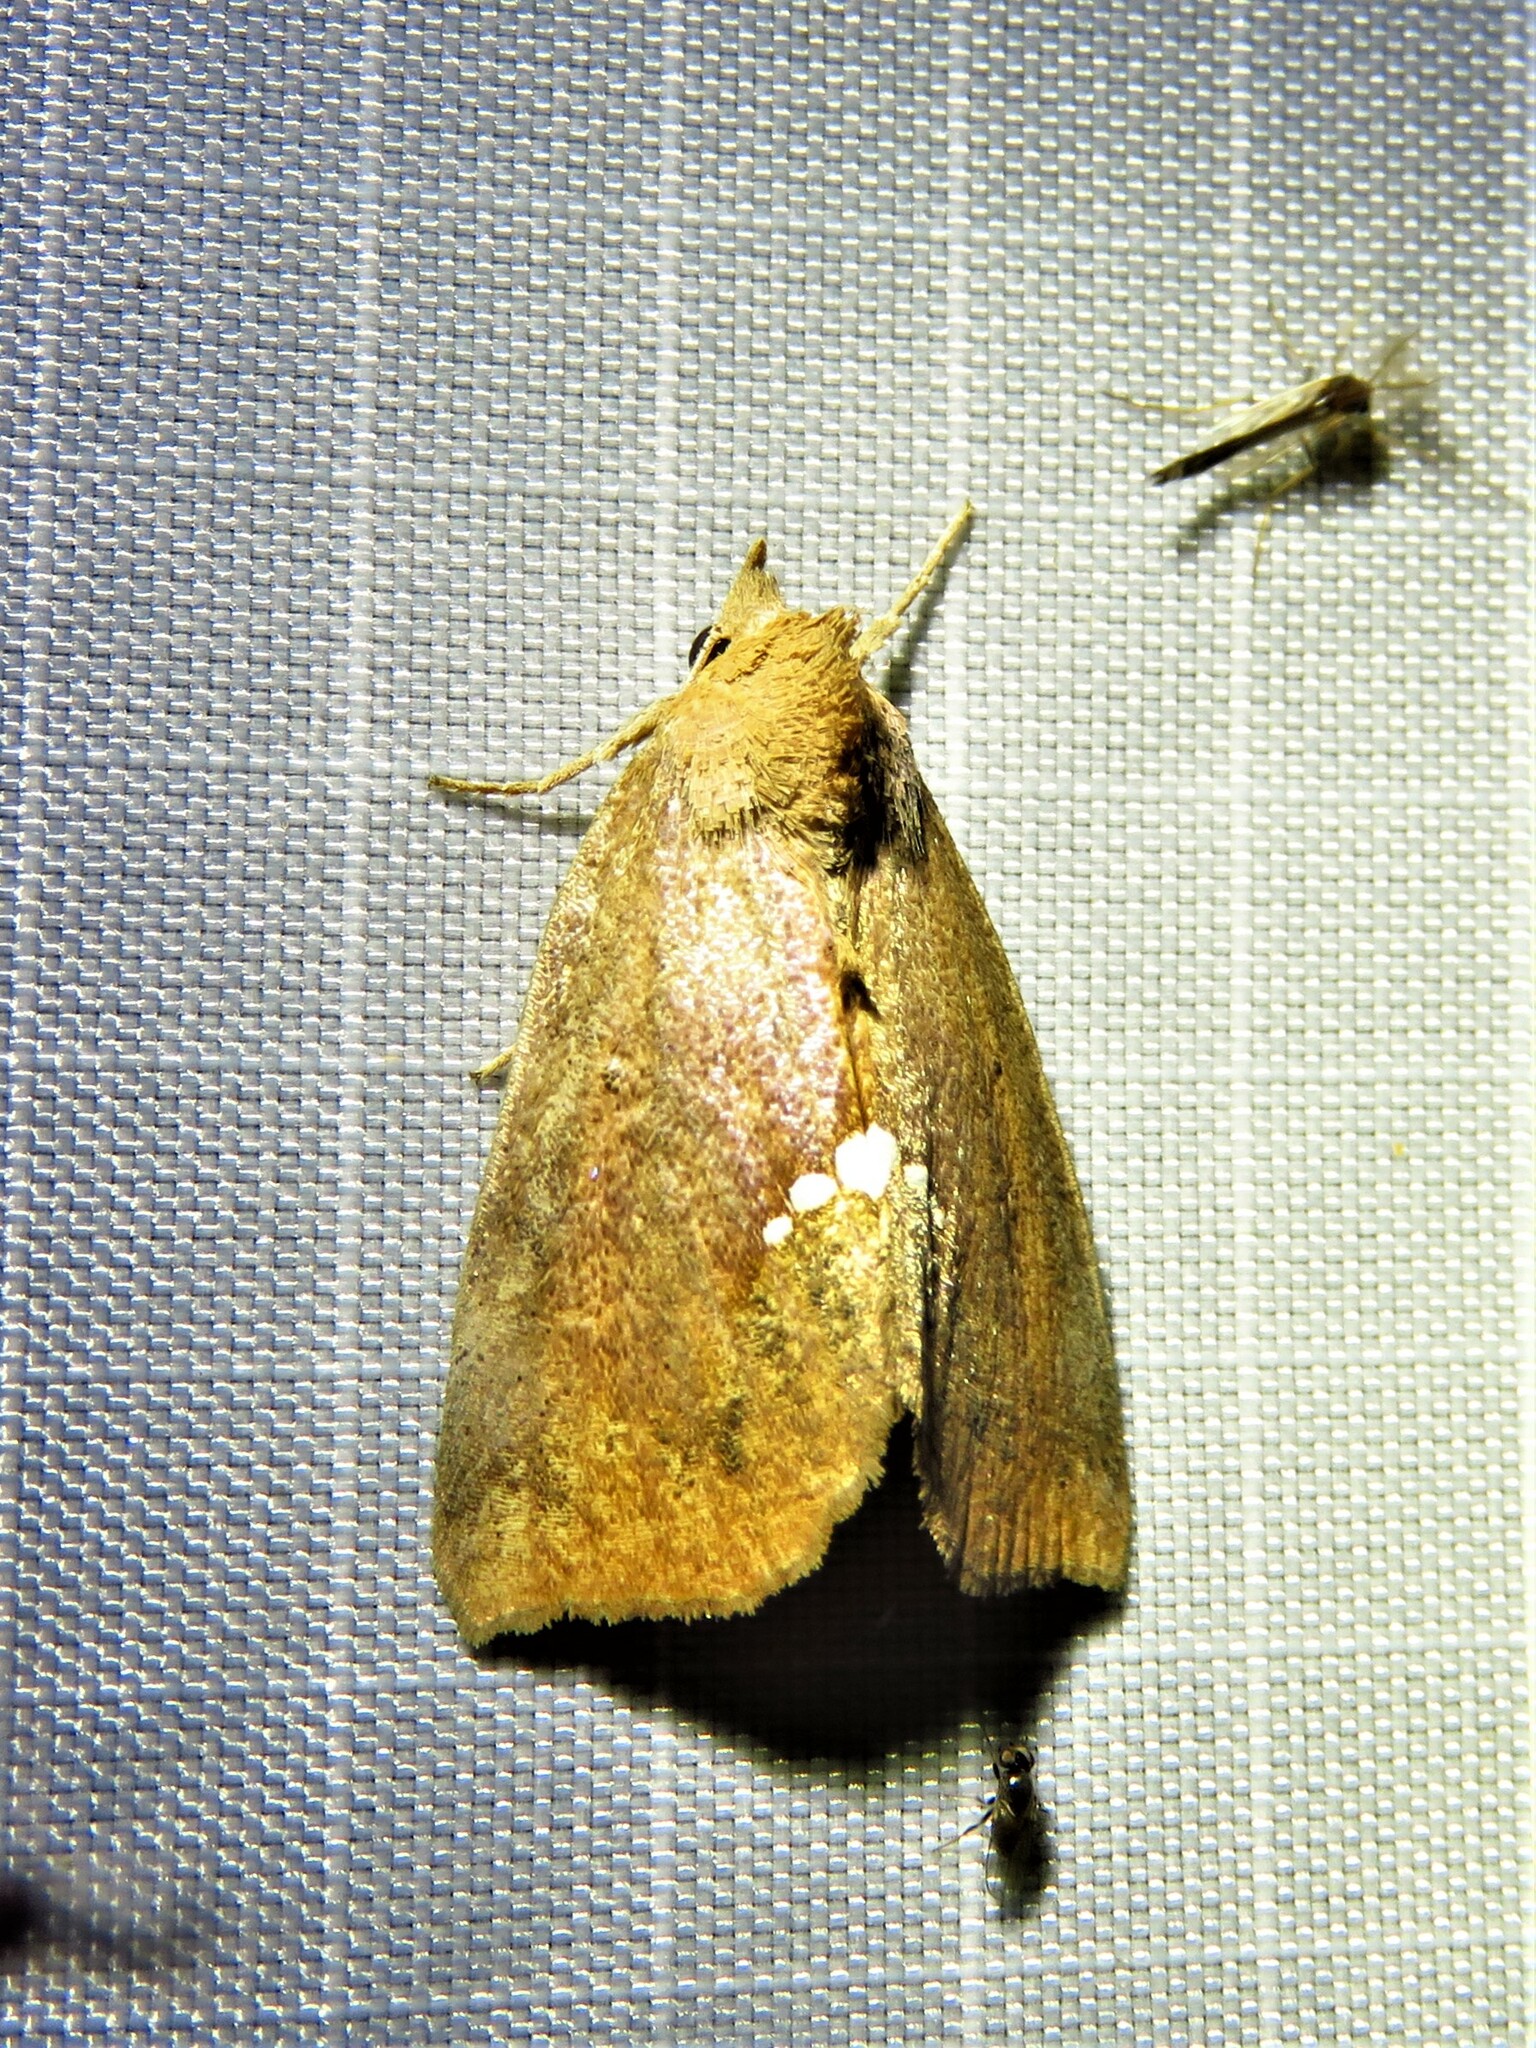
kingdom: Animalia
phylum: Arthropoda
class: Insecta
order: Lepidoptera
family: Erebidae
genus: Hypsoropha
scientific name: Hypsoropha hormos
